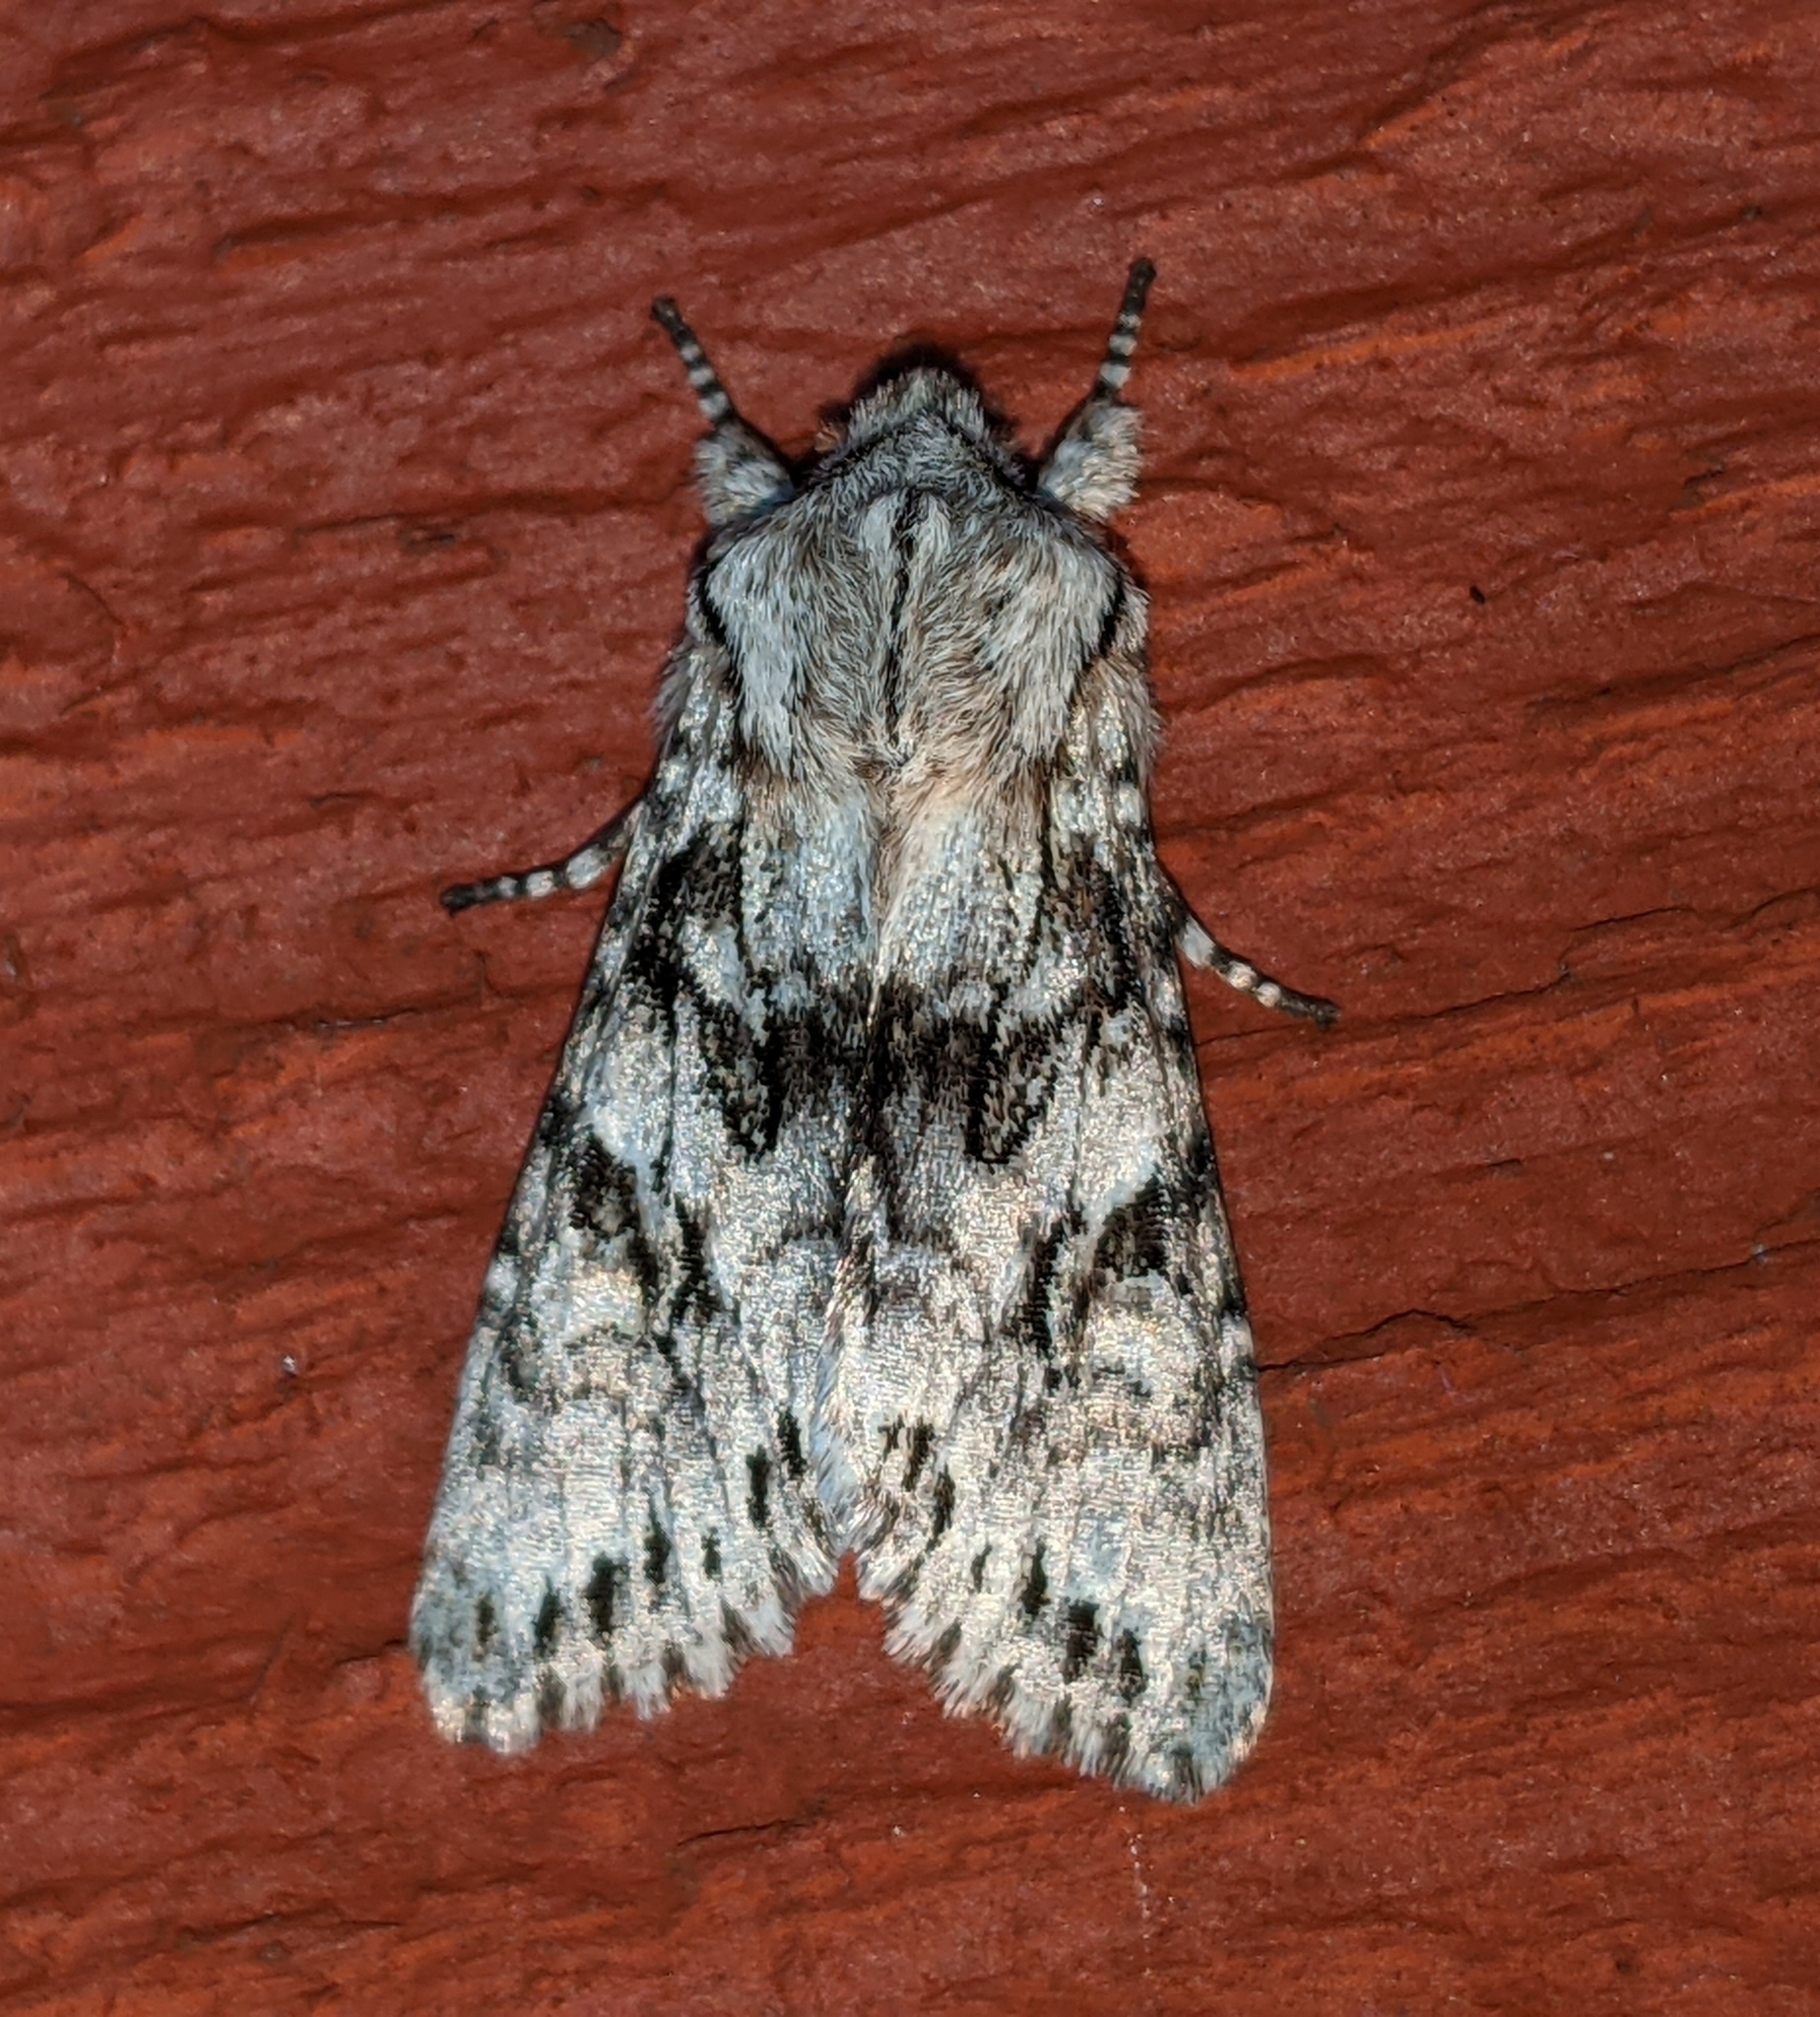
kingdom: Animalia
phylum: Arthropoda
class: Insecta
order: Lepidoptera
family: Noctuidae
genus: Egira
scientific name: Egira simplex
